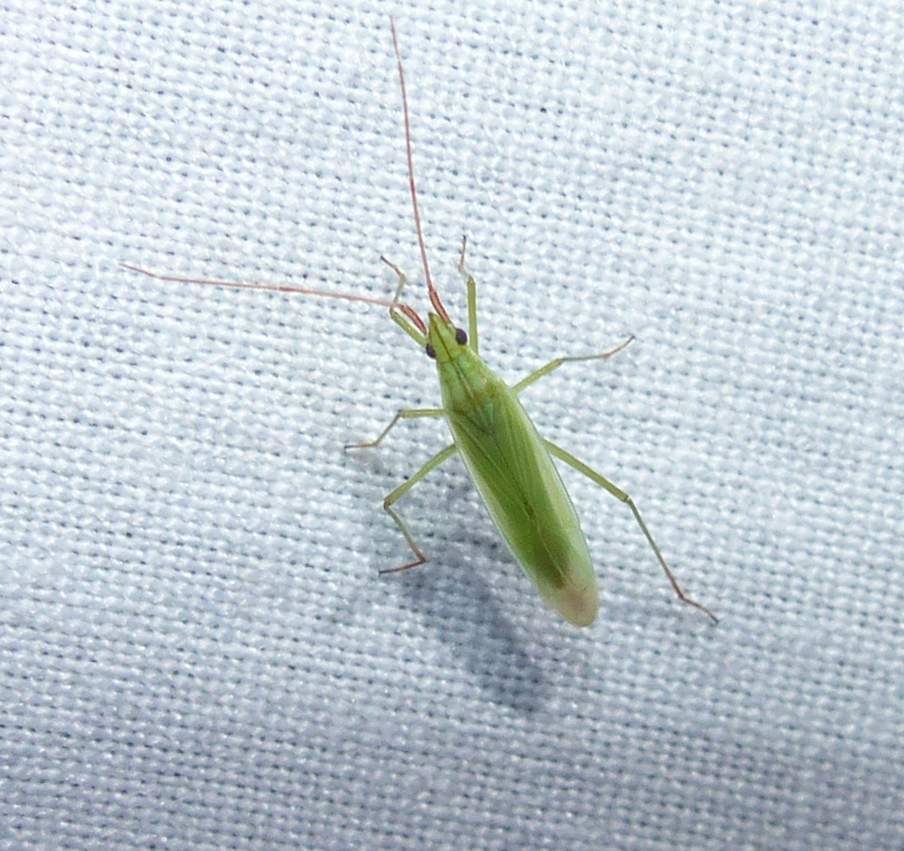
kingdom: Animalia
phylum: Arthropoda
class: Insecta
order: Hemiptera
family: Miridae
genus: Trigonotylus
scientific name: Trigonotylus caelestialium
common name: Rice leaf bug
